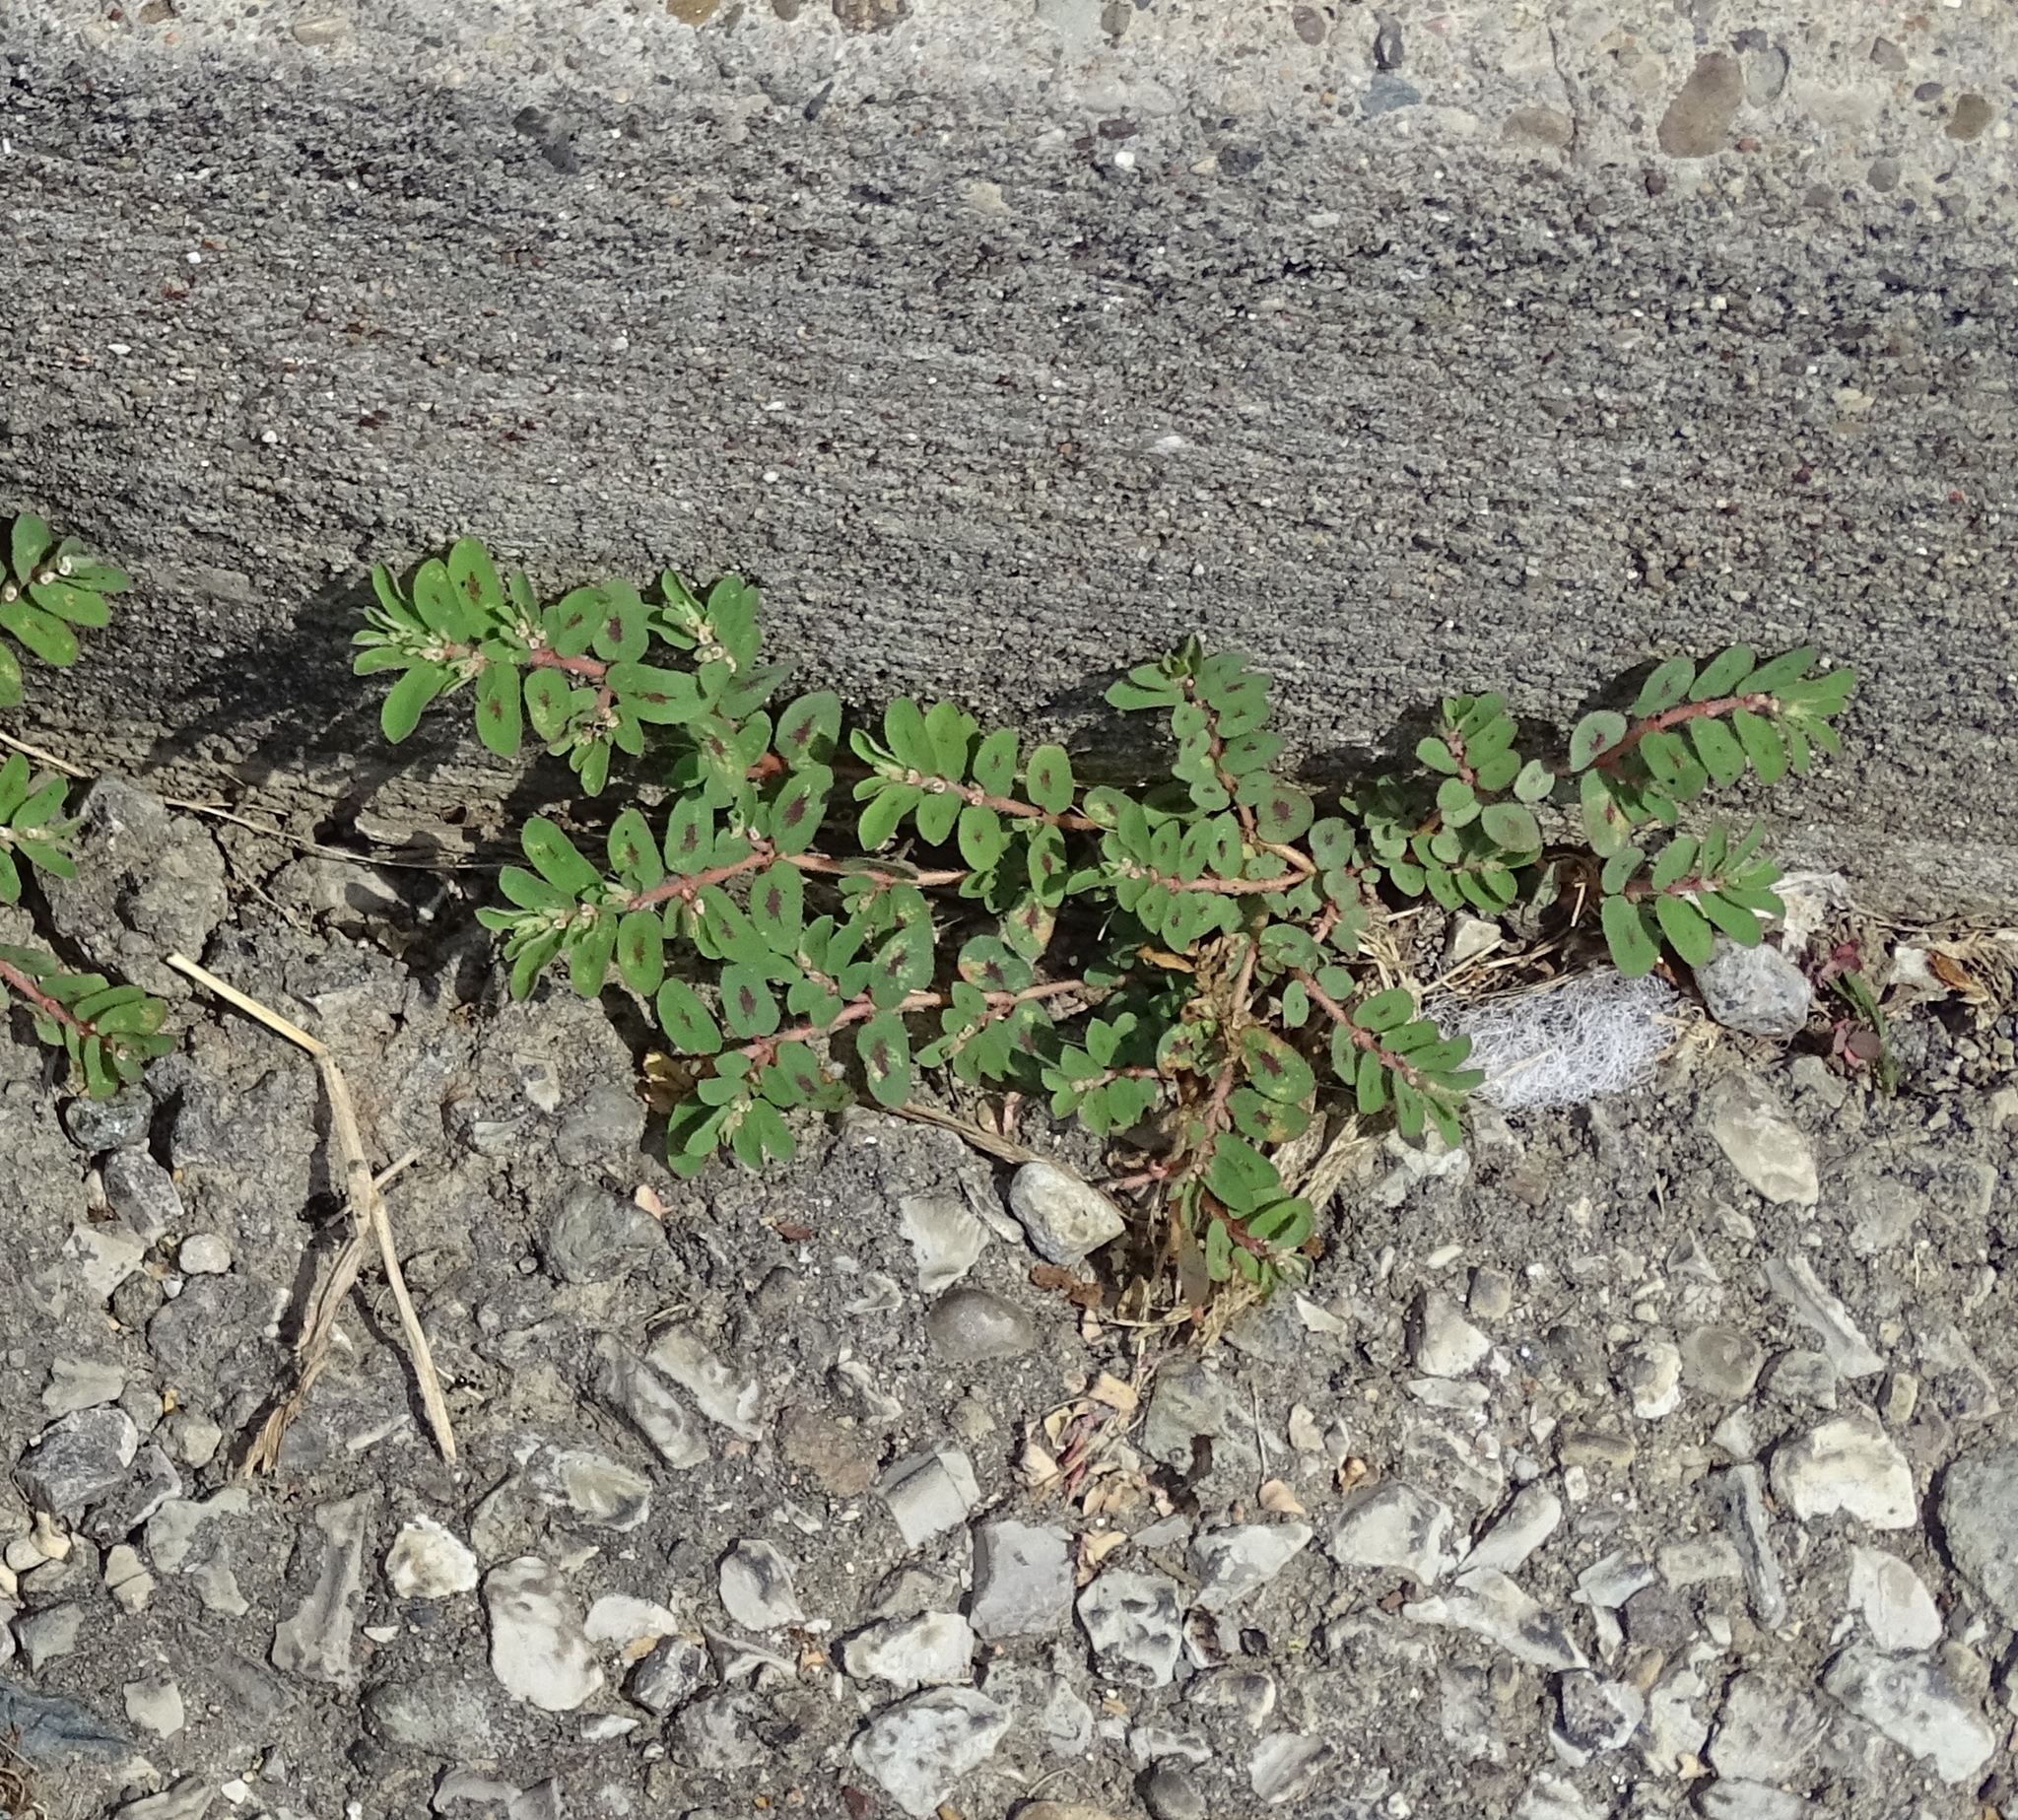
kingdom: Plantae
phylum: Tracheophyta
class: Magnoliopsida
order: Malpighiales
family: Euphorbiaceae
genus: Euphorbia
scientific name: Euphorbia maculata
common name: Spotted spurge
